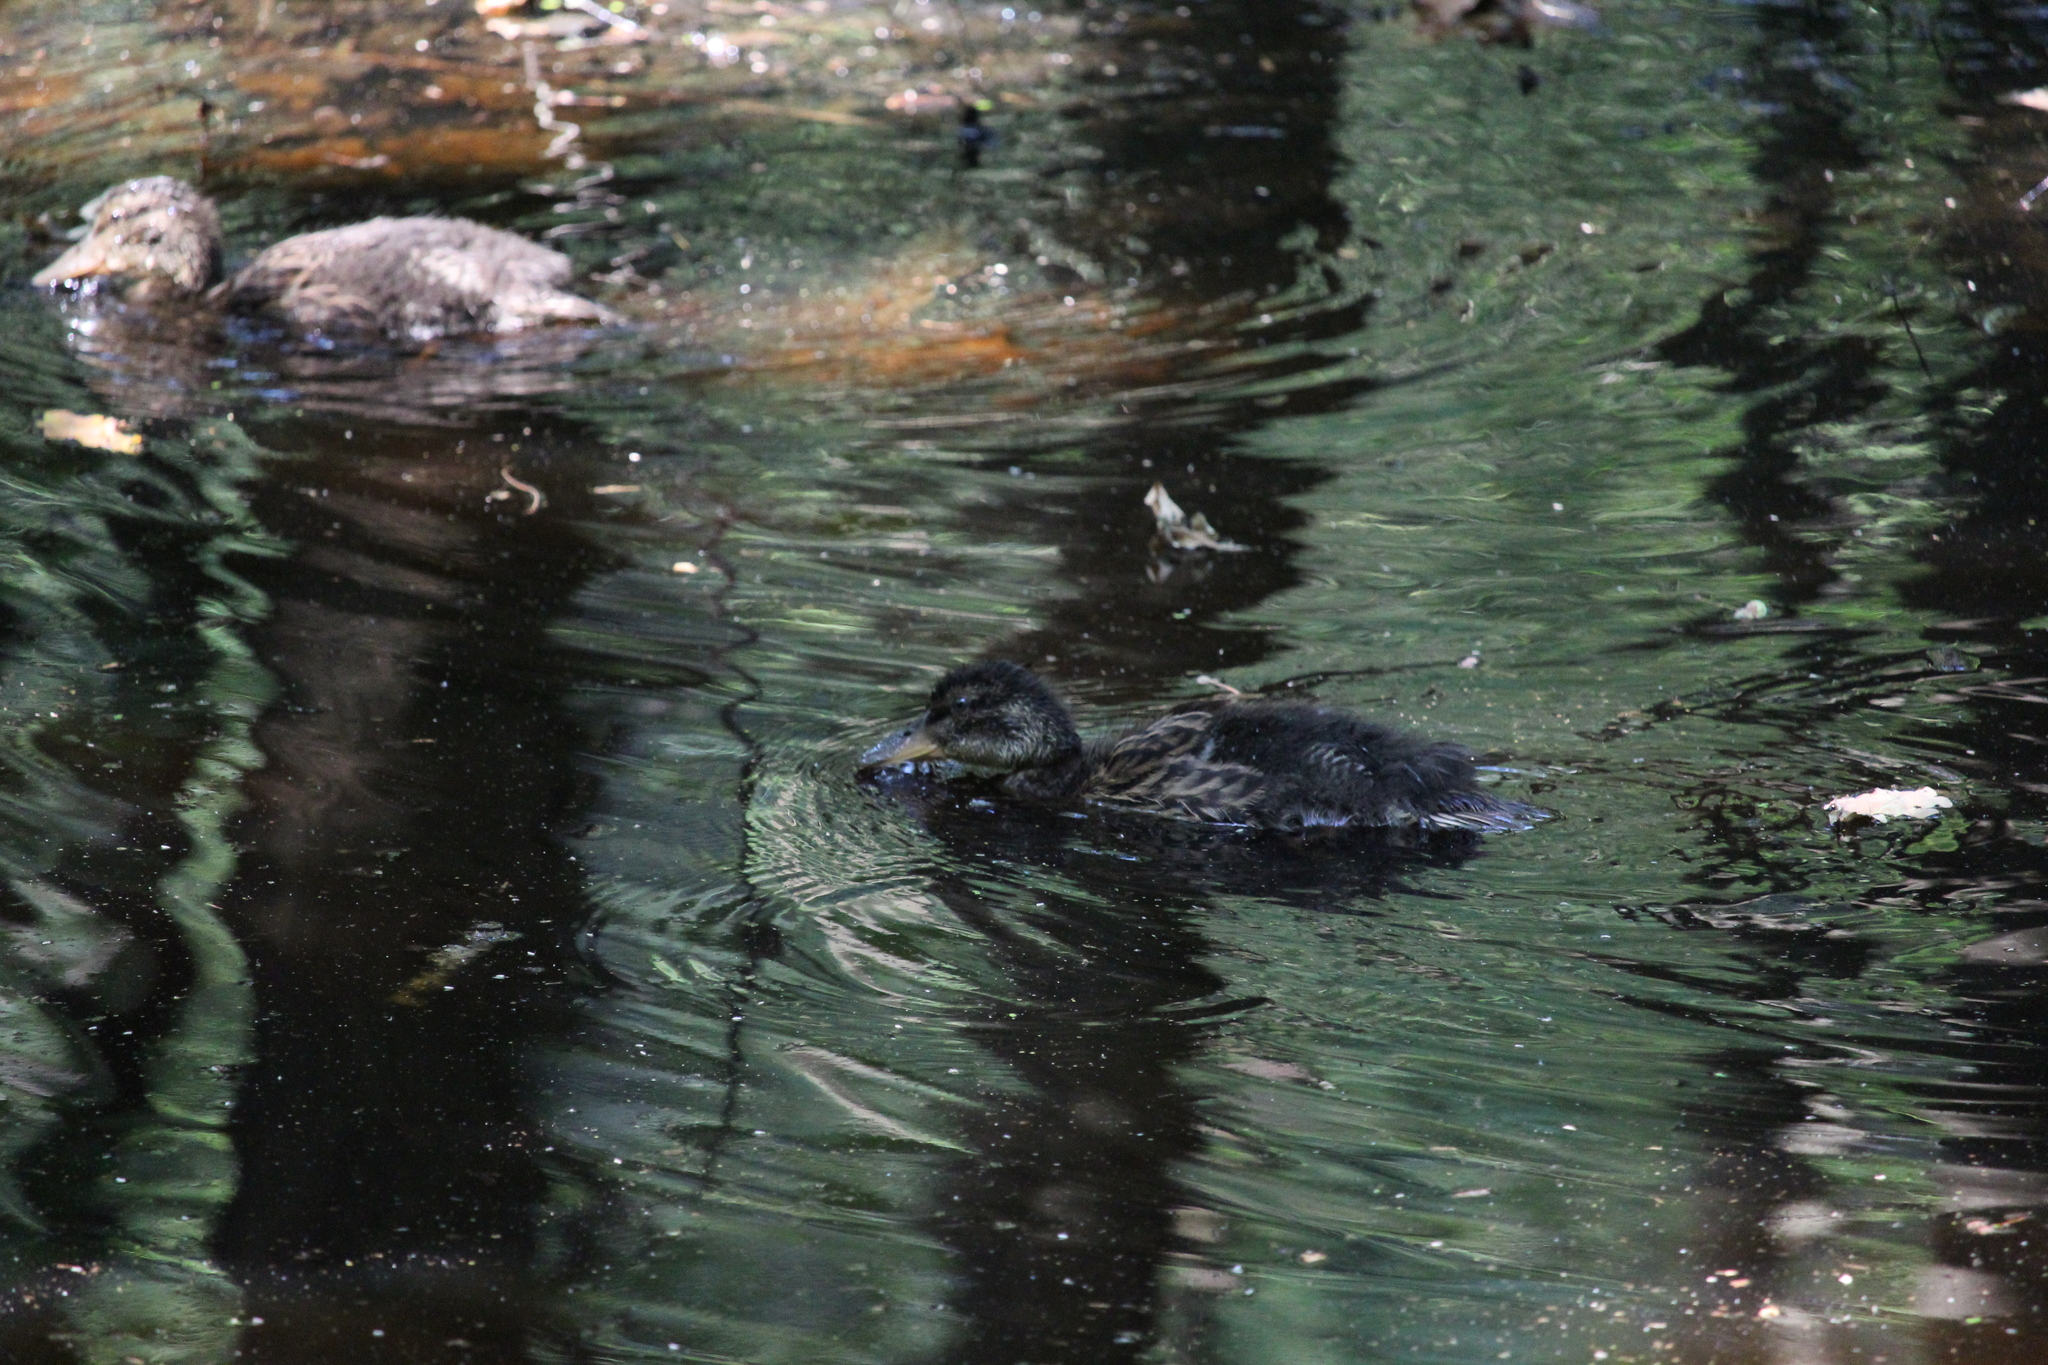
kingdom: Animalia
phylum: Chordata
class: Aves
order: Anseriformes
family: Anatidae
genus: Anas
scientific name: Anas platyrhynchos
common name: Mallard
